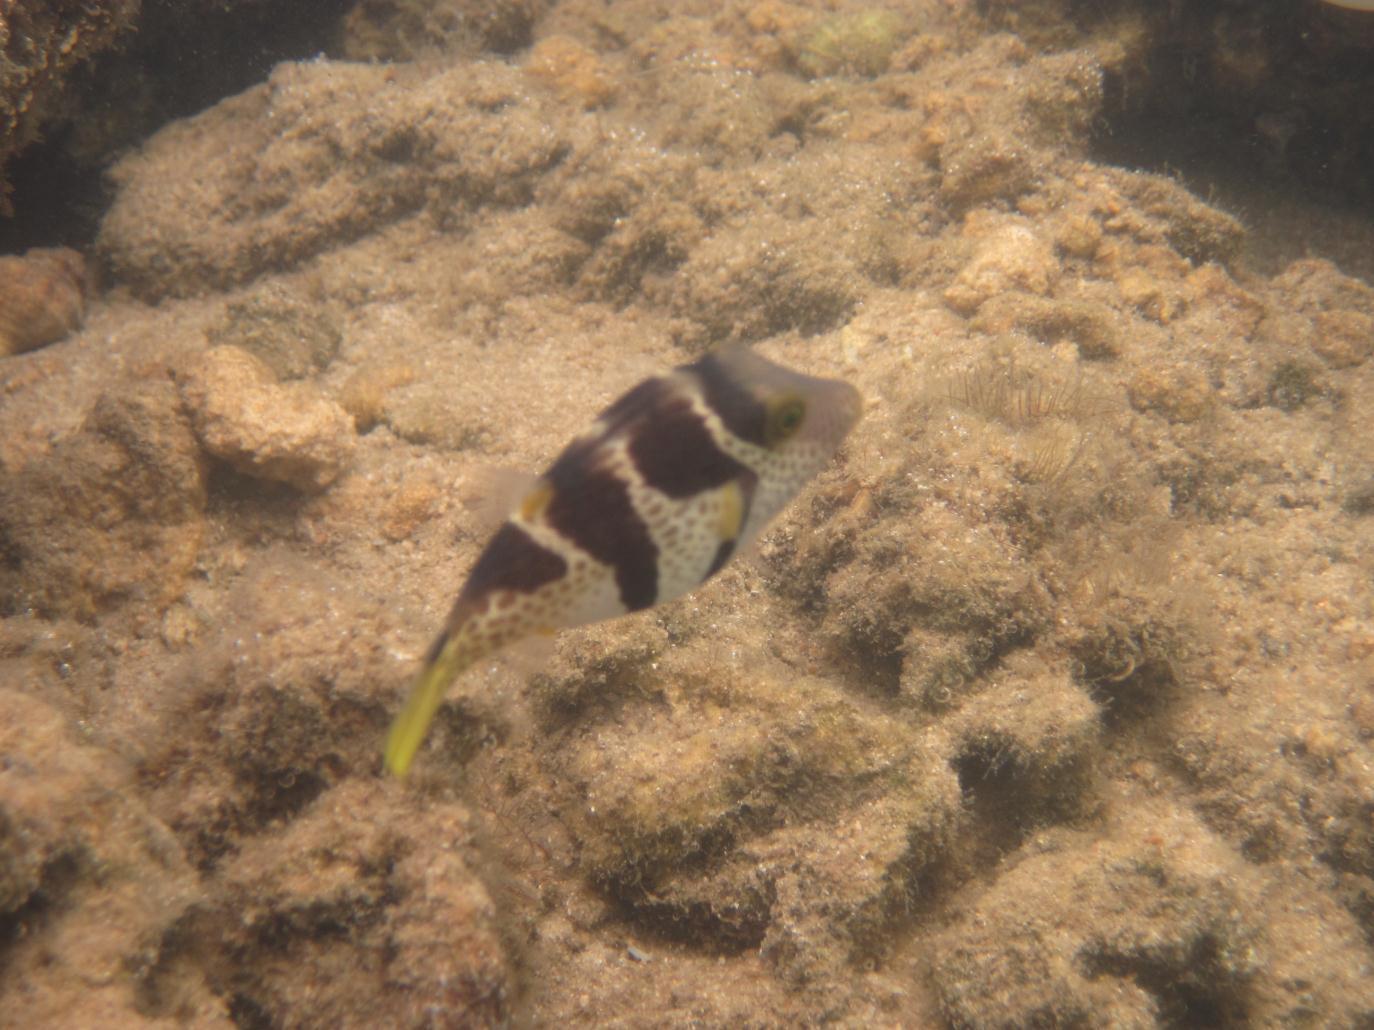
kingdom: Animalia
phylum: Chordata
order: Tetraodontiformes
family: Tetraodontidae
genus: Canthigaster
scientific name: Canthigaster valentini
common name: Banded toby
